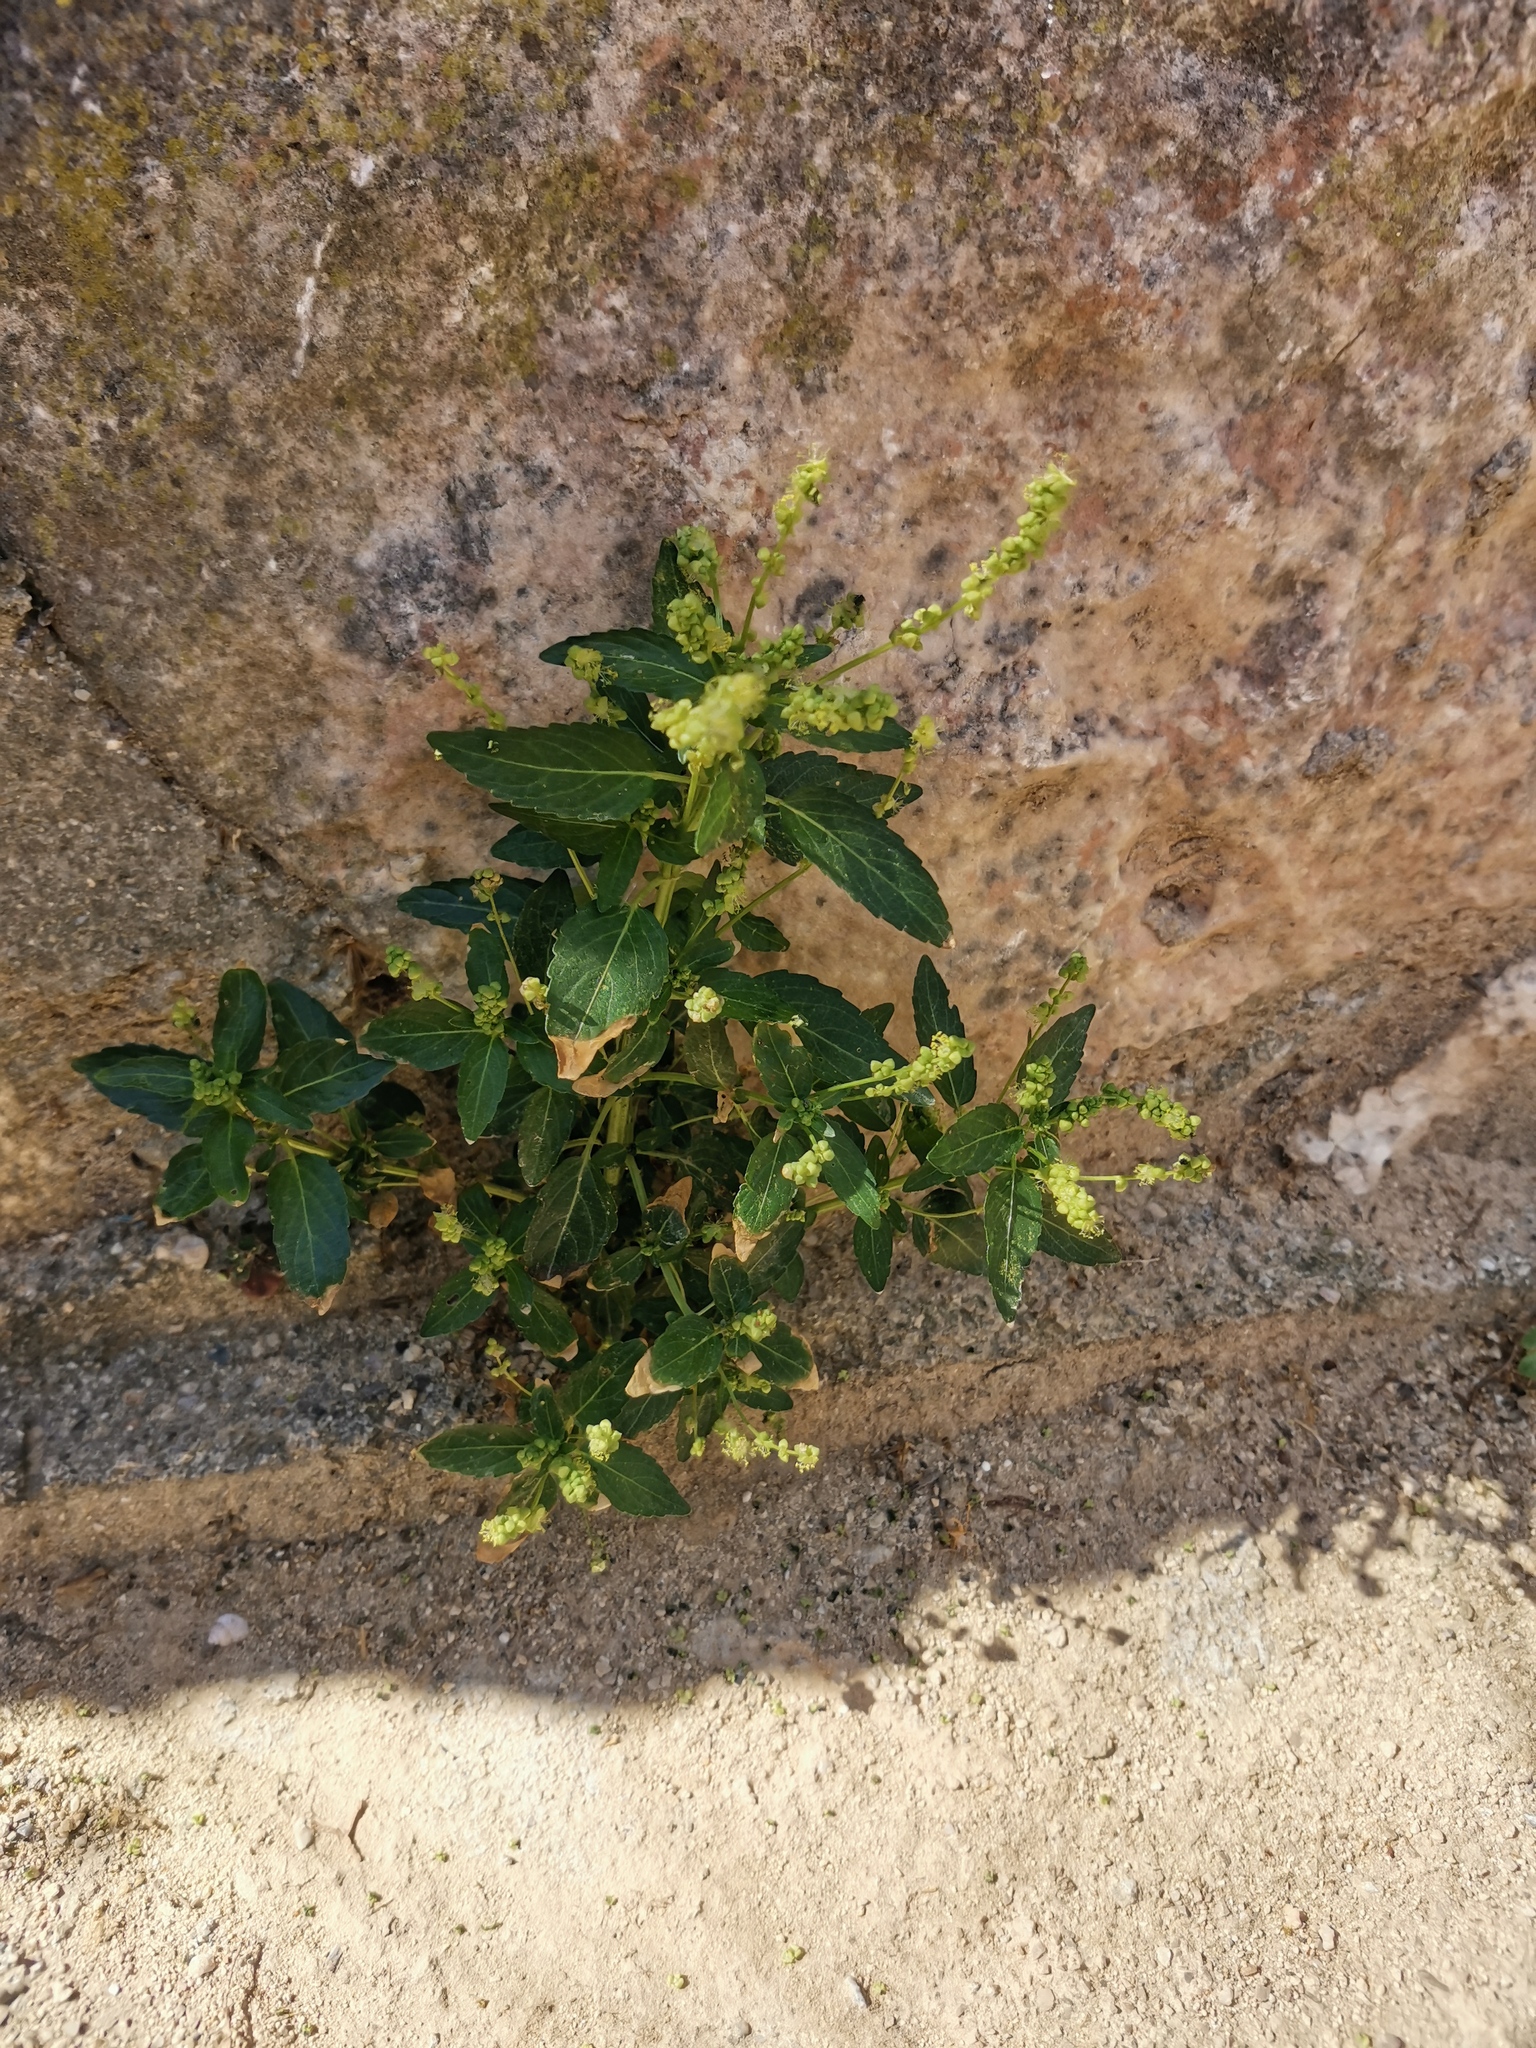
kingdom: Plantae
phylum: Tracheophyta
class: Magnoliopsida
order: Malpighiales
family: Euphorbiaceae
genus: Mercurialis
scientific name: Mercurialis annua
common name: Annual mercury
